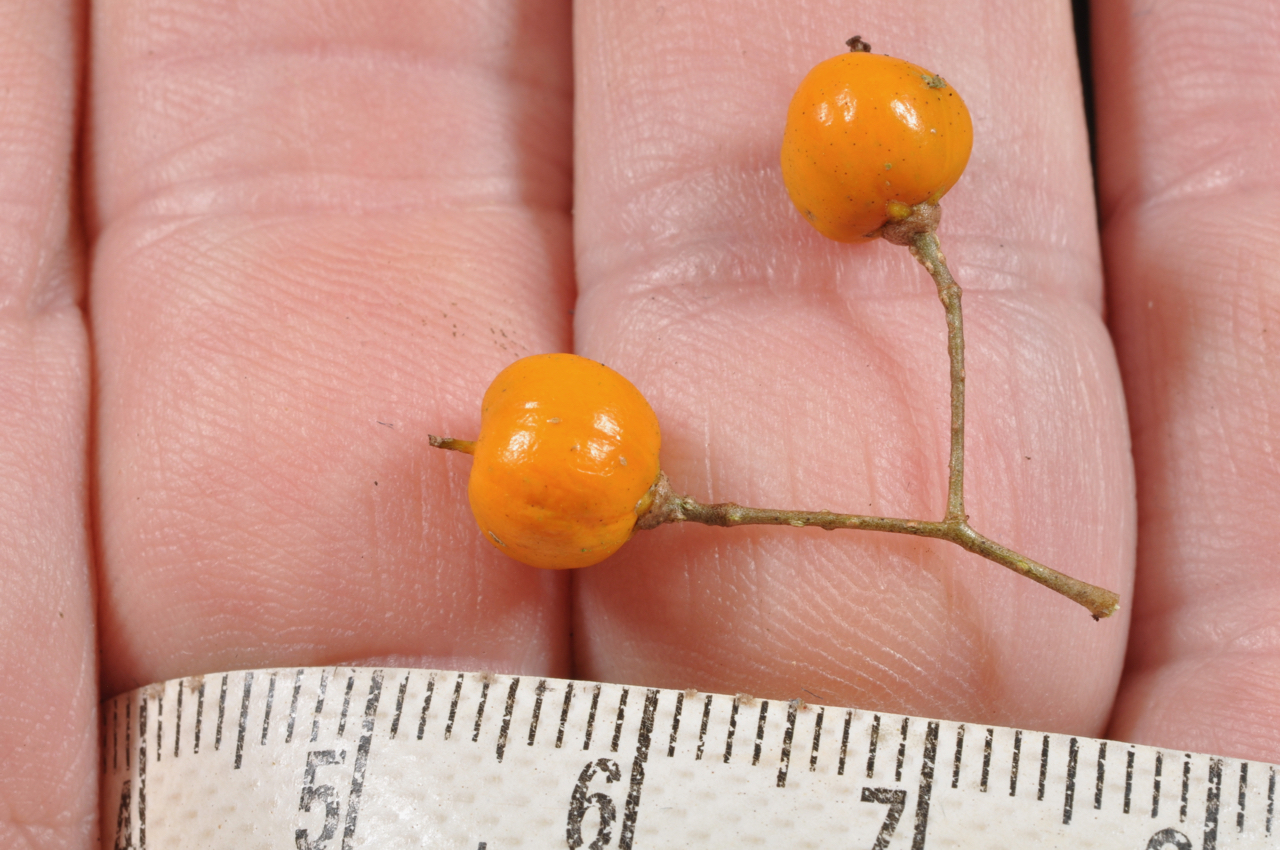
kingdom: Plantae
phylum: Tracheophyta
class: Magnoliopsida
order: Celastrales
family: Celastraceae
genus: Celastrus
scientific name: Celastrus kusanoi
